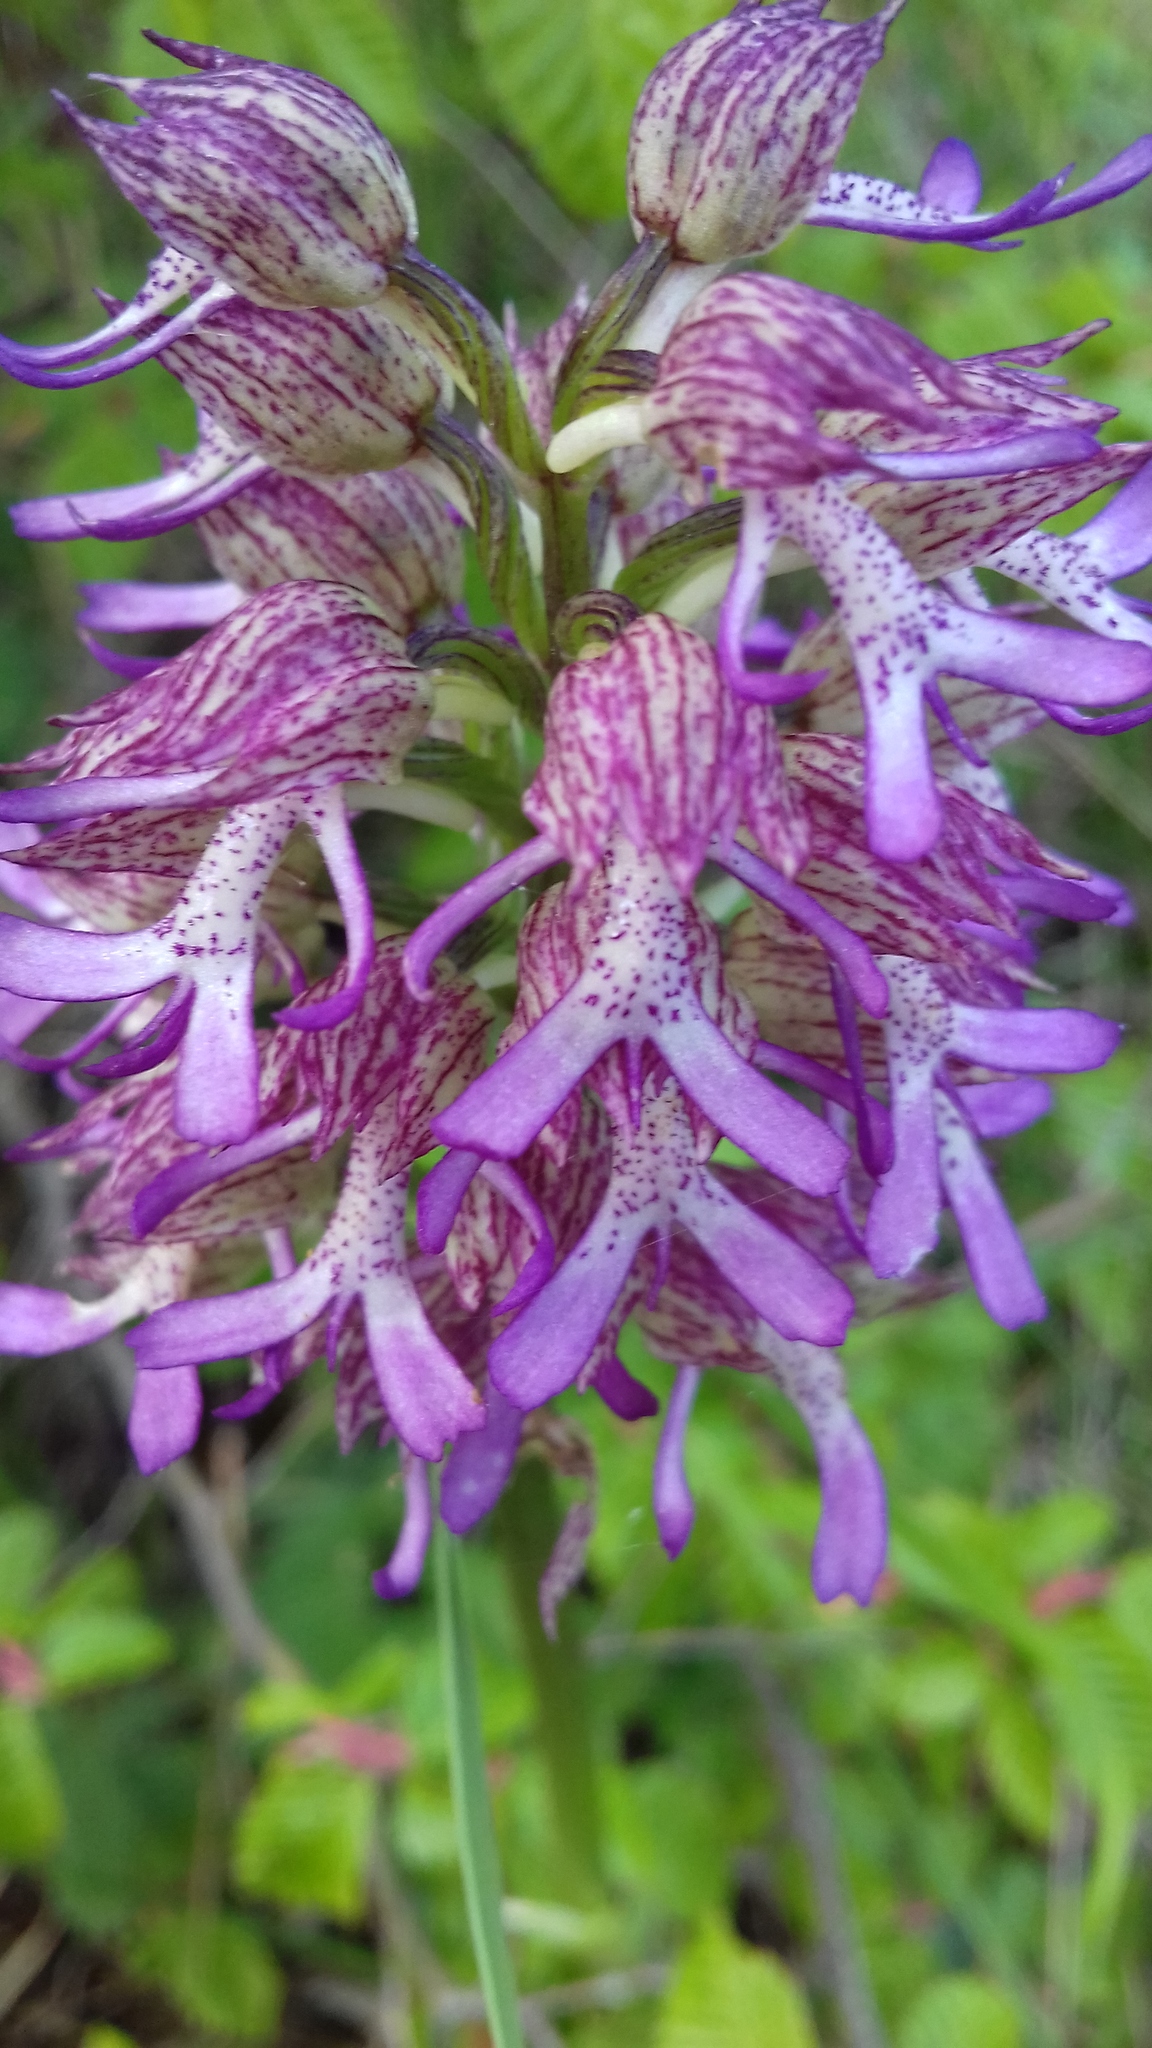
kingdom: Plantae
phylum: Tracheophyta
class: Liliopsida
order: Asparagales
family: Orchidaceae
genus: Orchis
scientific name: Orchis angusticruris
